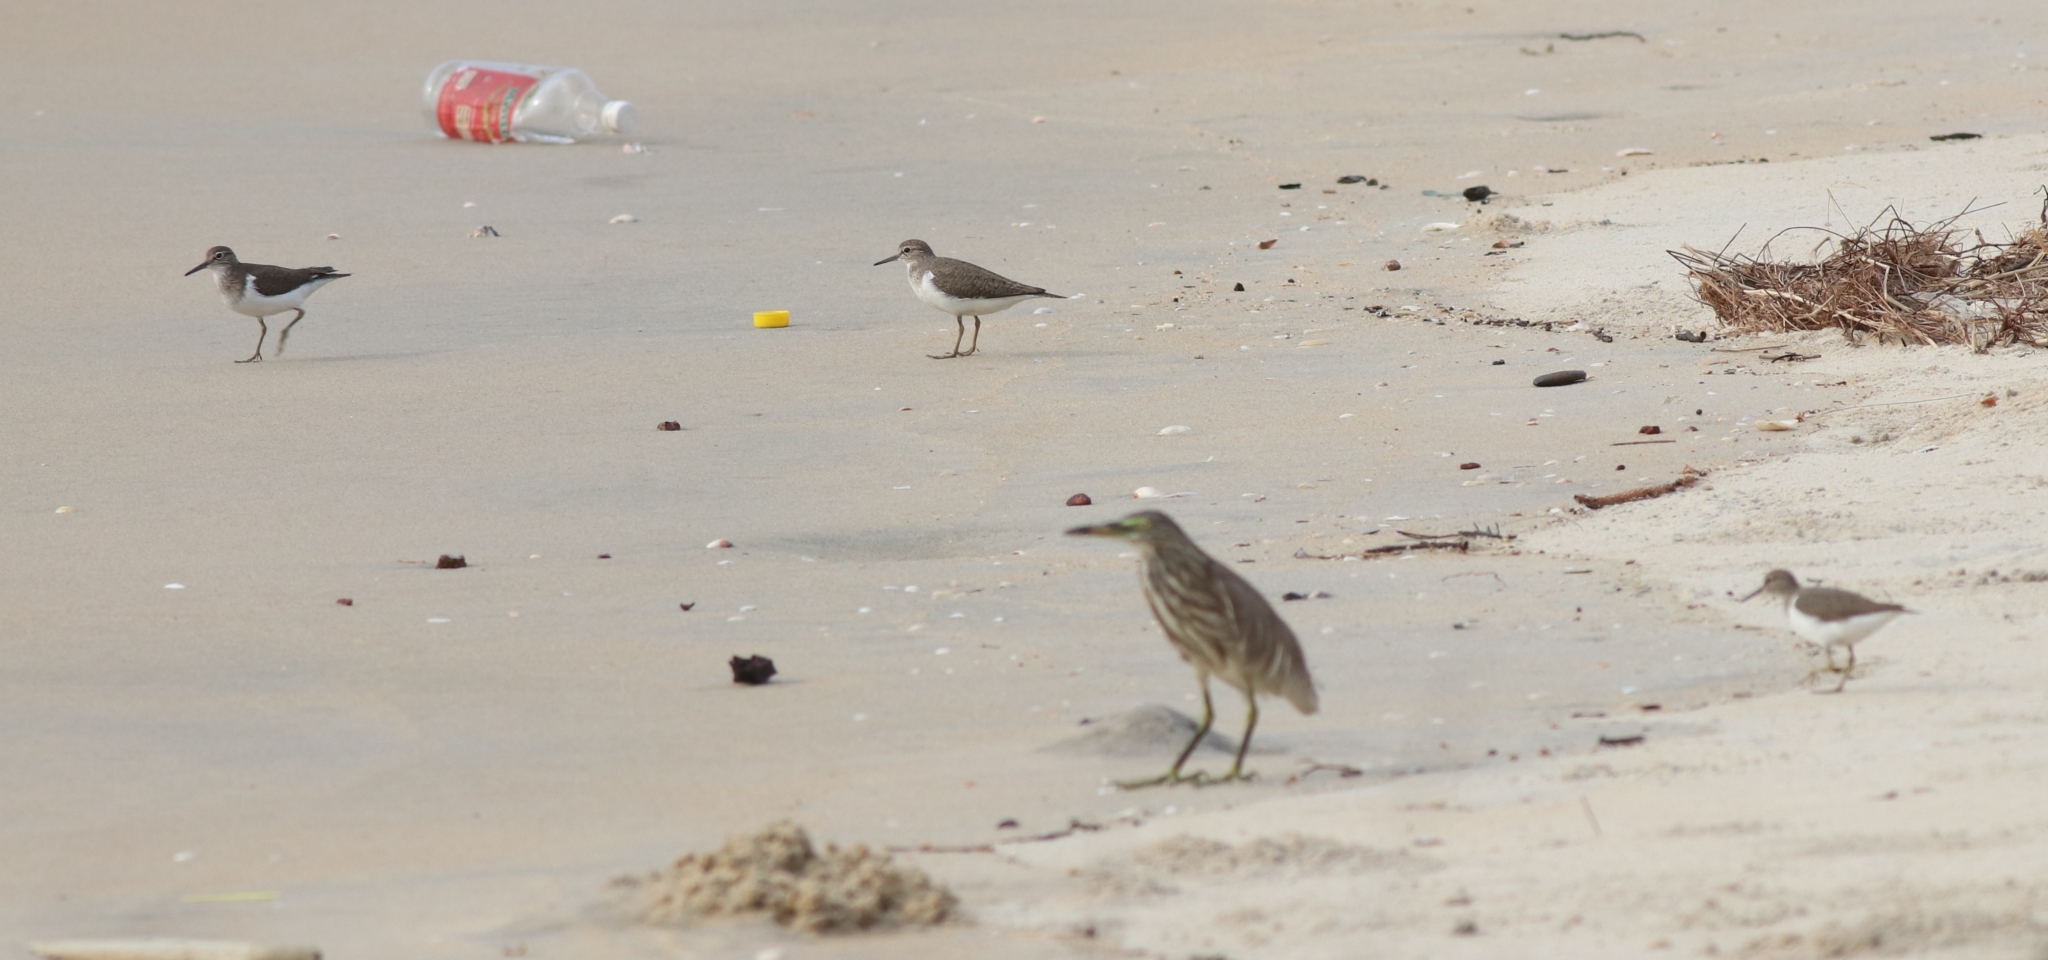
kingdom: Animalia
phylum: Chordata
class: Aves
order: Charadriiformes
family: Scolopacidae
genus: Actitis
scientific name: Actitis hypoleucos
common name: Common sandpiper
